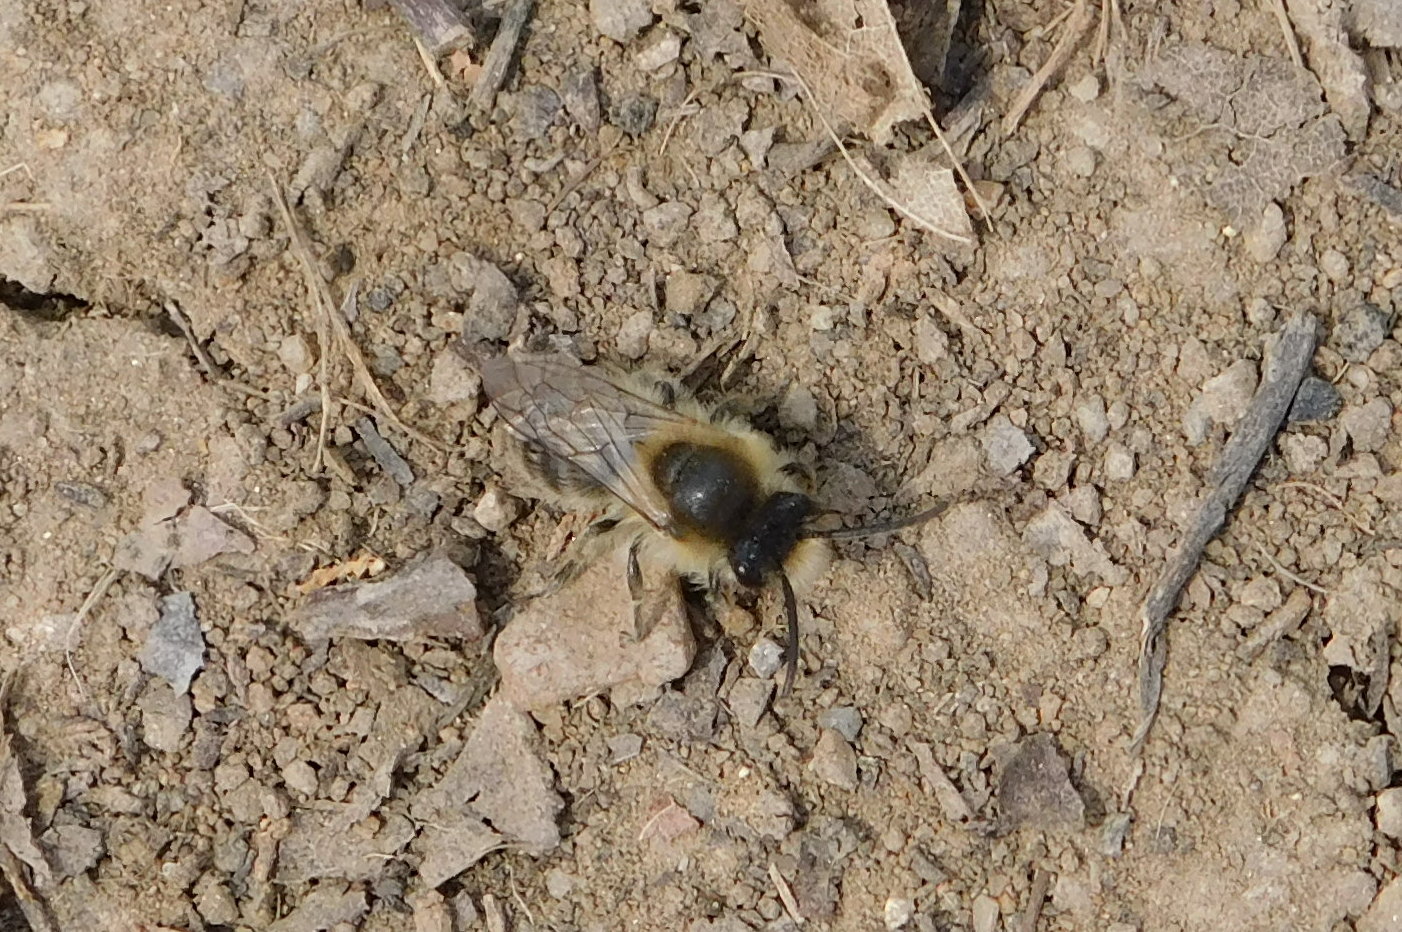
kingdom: Animalia
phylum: Arthropoda
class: Insecta
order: Hymenoptera
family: Colletidae
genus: Colletes
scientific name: Colletes cunicularius
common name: Early colletes
